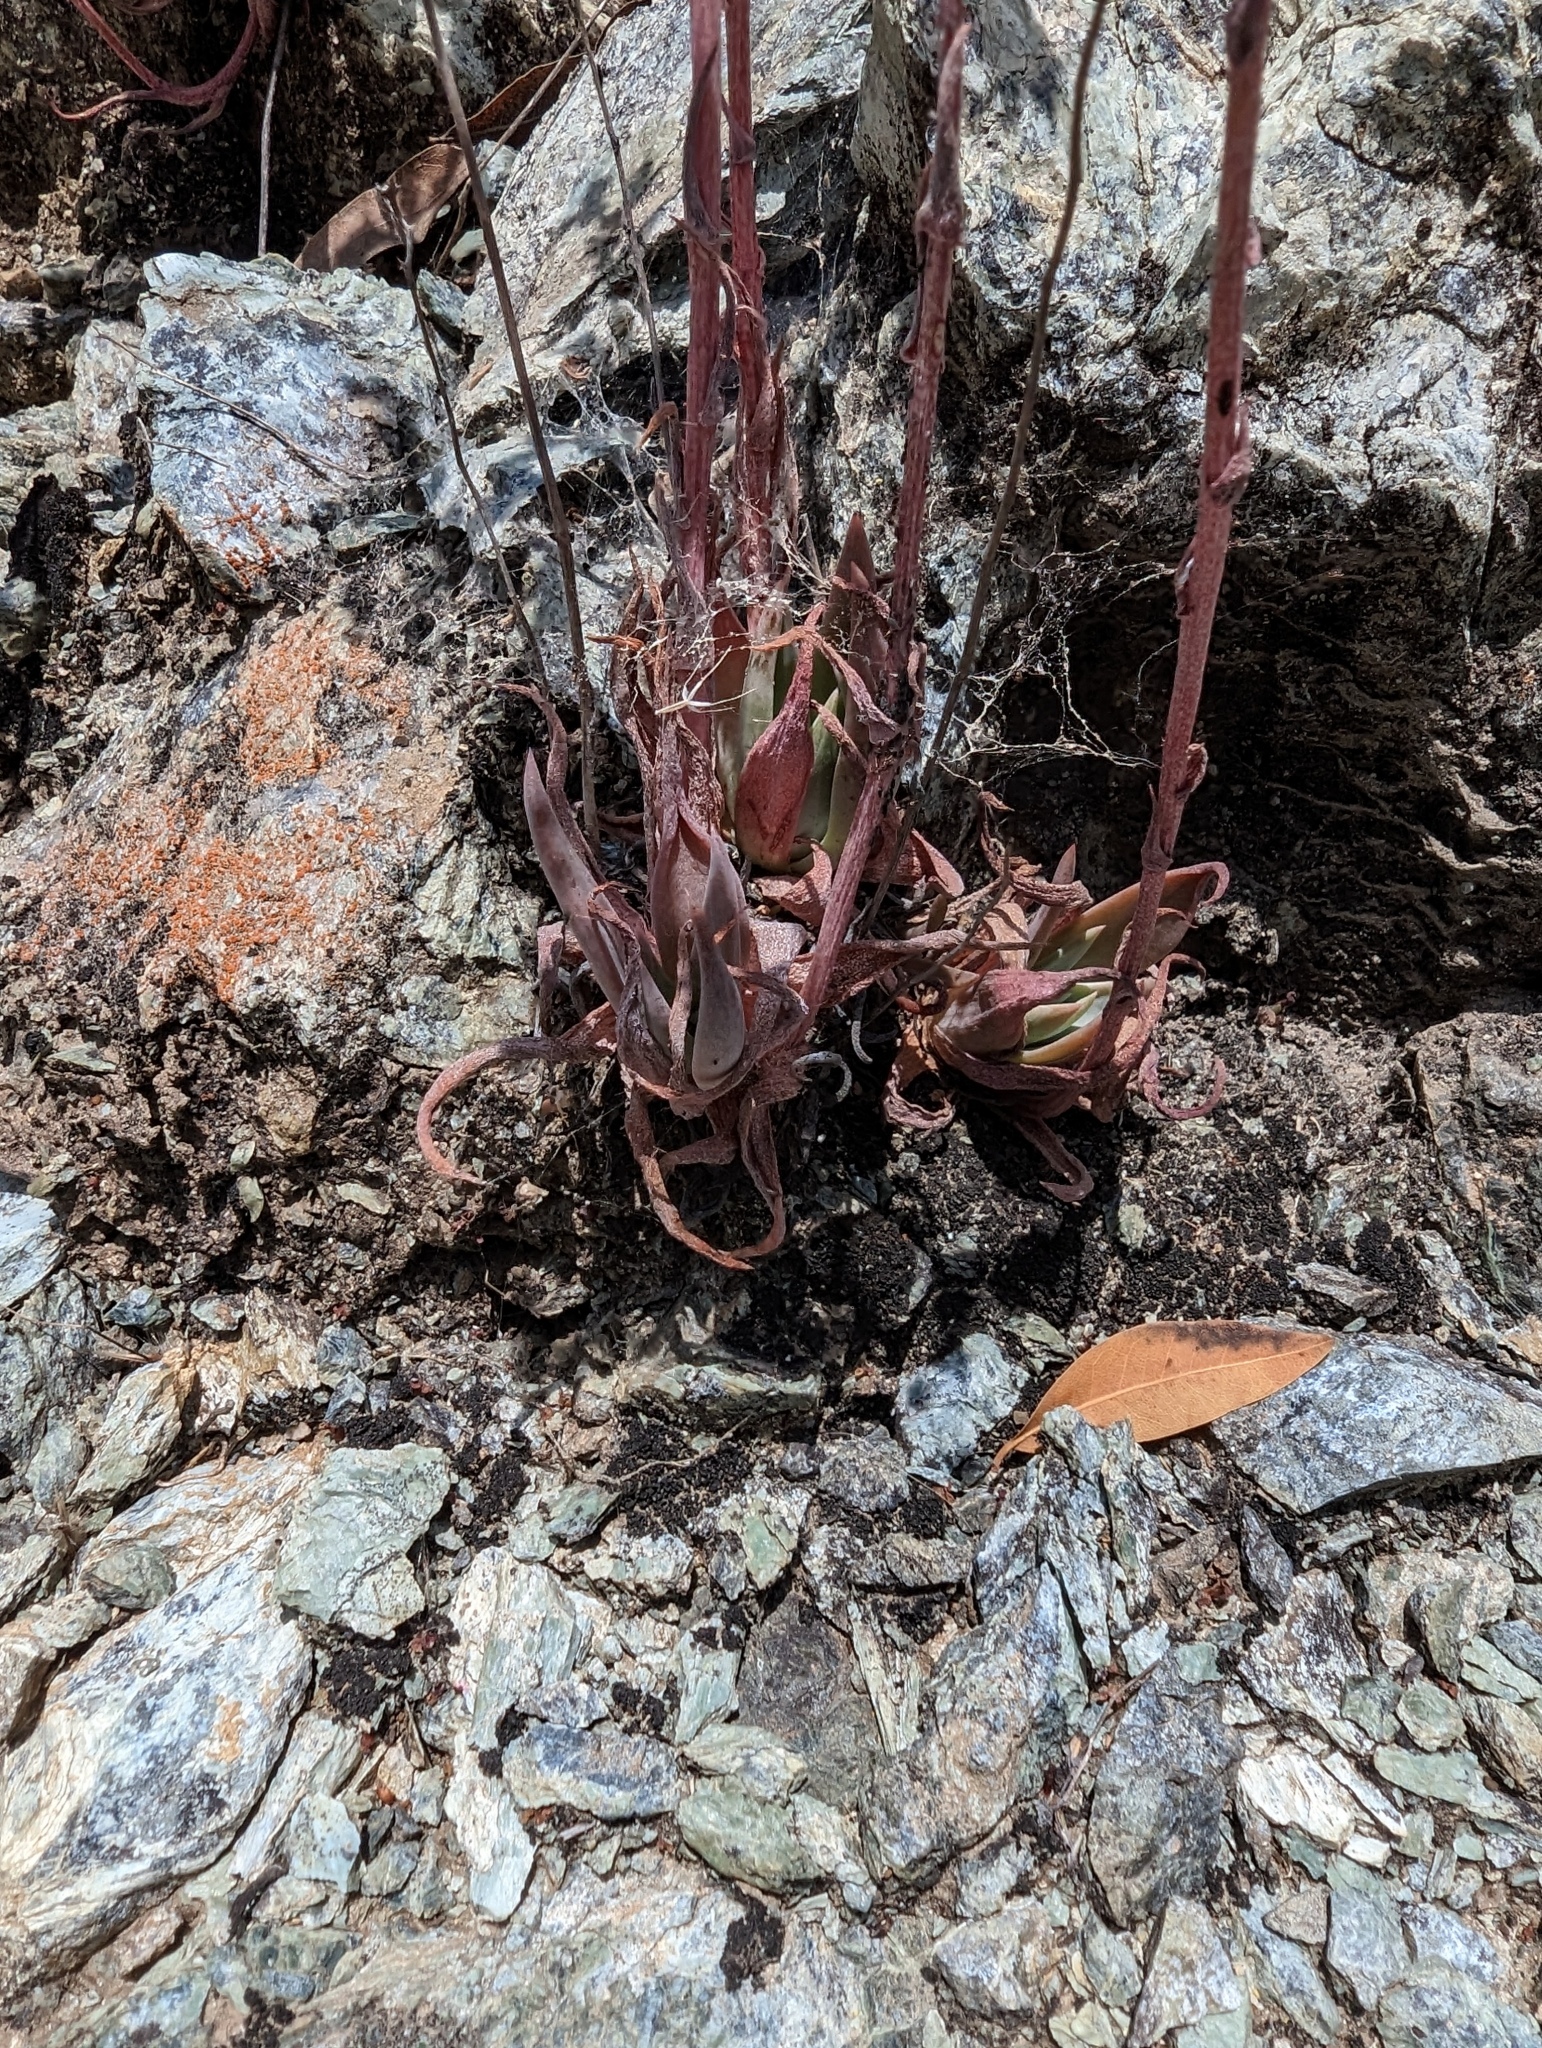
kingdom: Plantae
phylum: Tracheophyta
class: Magnoliopsida
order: Saxifragales
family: Crassulaceae
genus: Dudleya
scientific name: Dudleya abramsii
